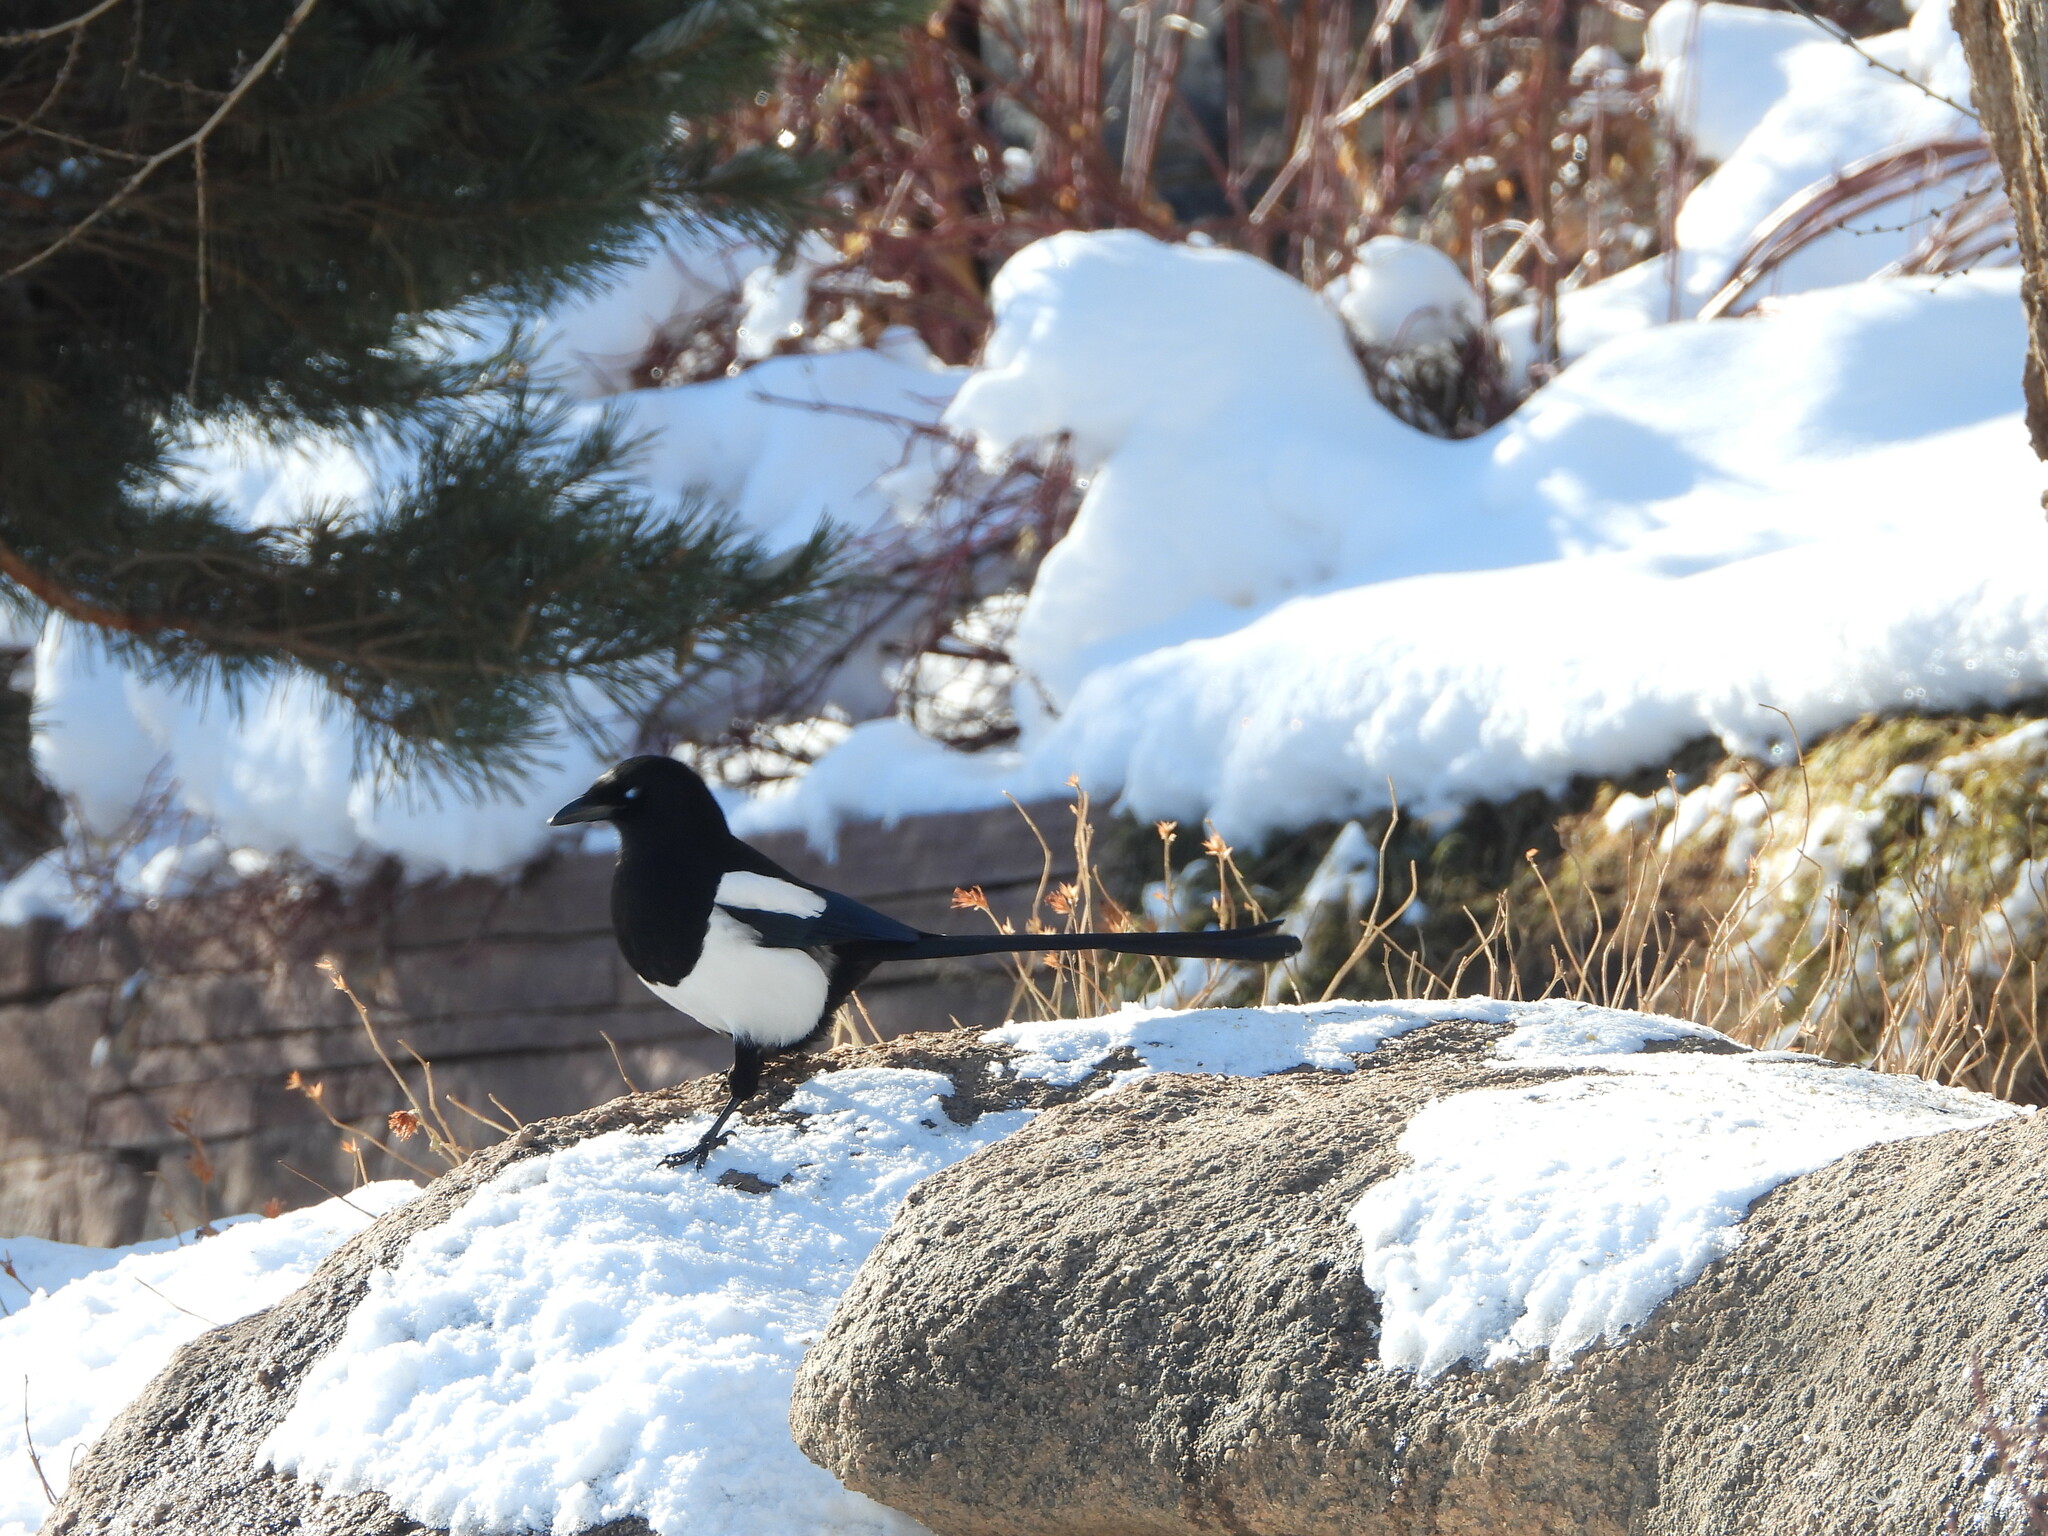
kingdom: Animalia
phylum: Chordata
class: Aves
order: Passeriformes
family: Corvidae
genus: Pica
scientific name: Pica hudsonia
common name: Black-billed magpie
